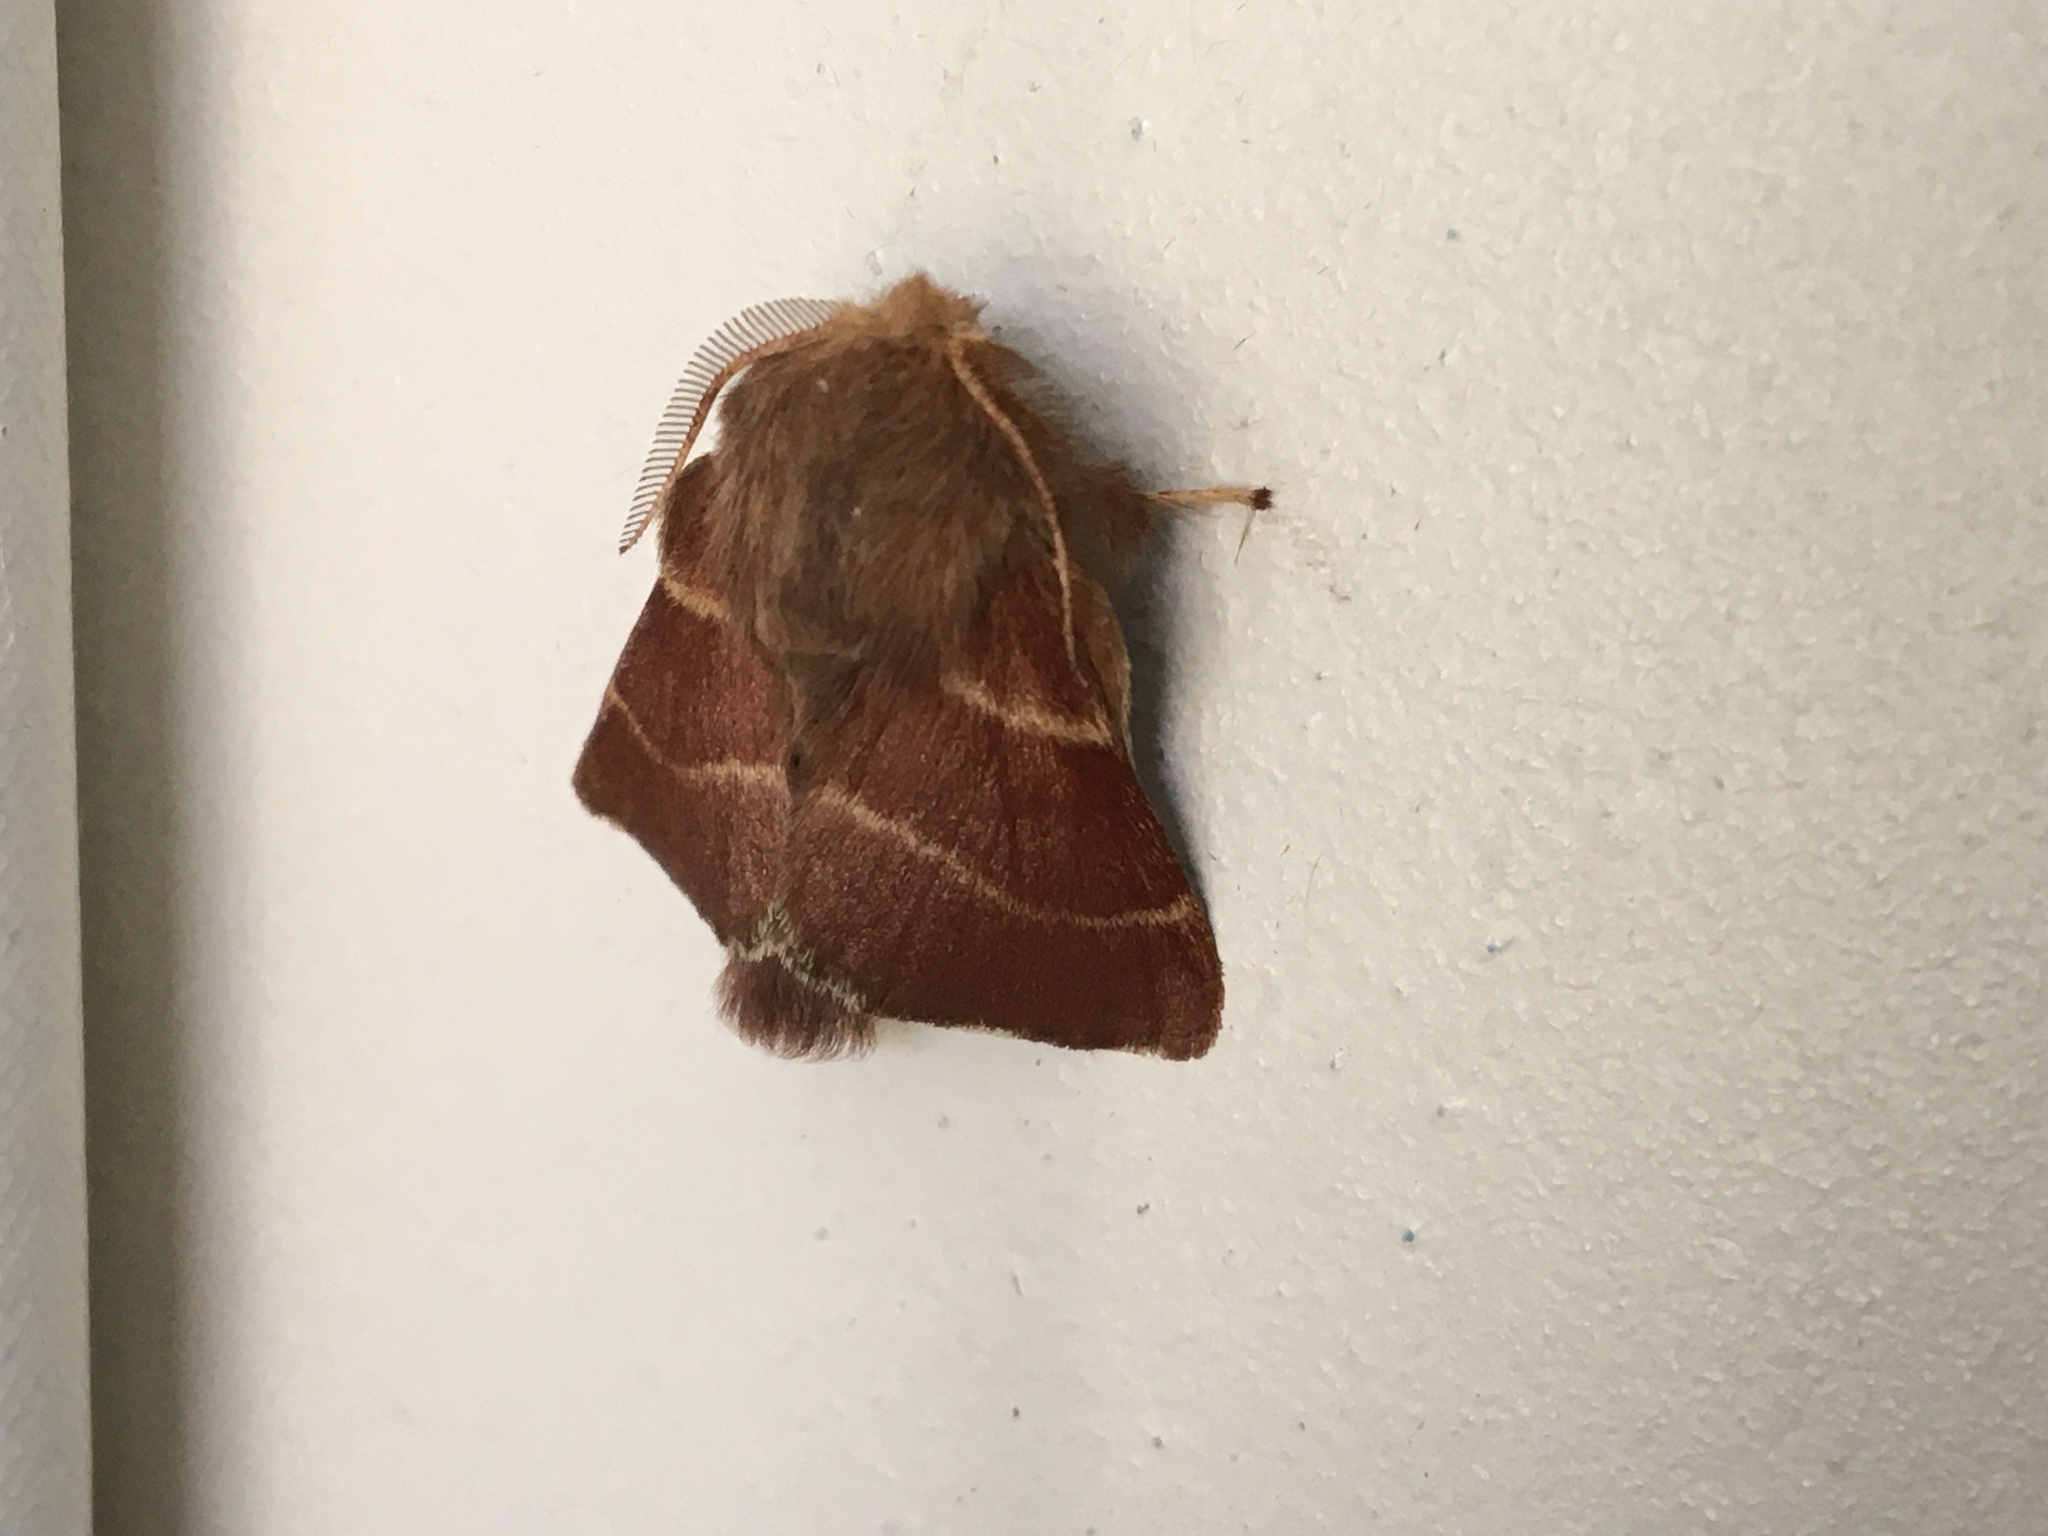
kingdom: Animalia
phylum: Arthropoda
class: Insecta
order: Lepidoptera
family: Lasiocampidae
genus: Malacosoma
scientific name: Malacosoma californica
